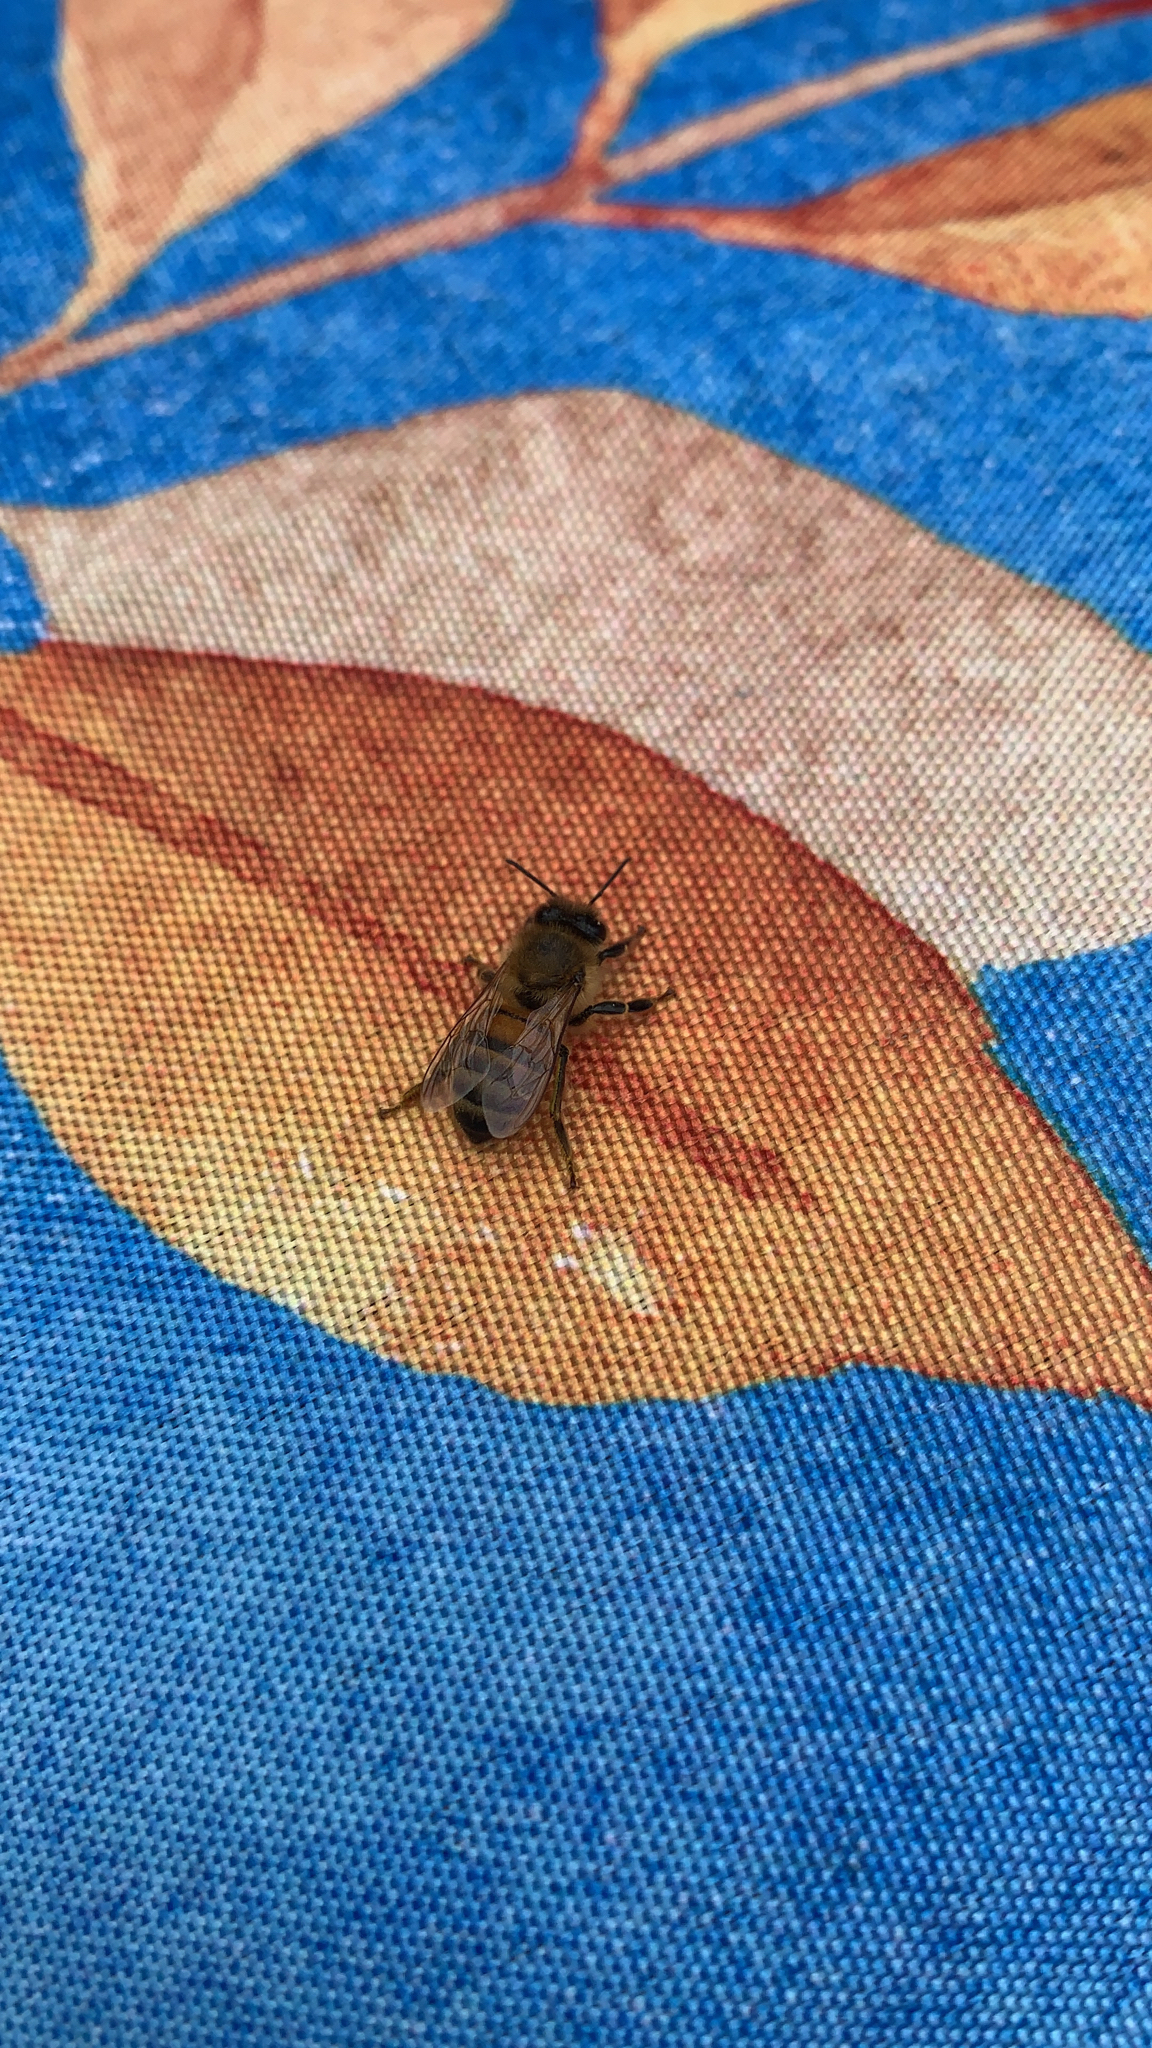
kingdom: Animalia
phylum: Arthropoda
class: Insecta
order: Hymenoptera
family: Apidae
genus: Apis
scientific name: Apis mellifera
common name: Honey bee
